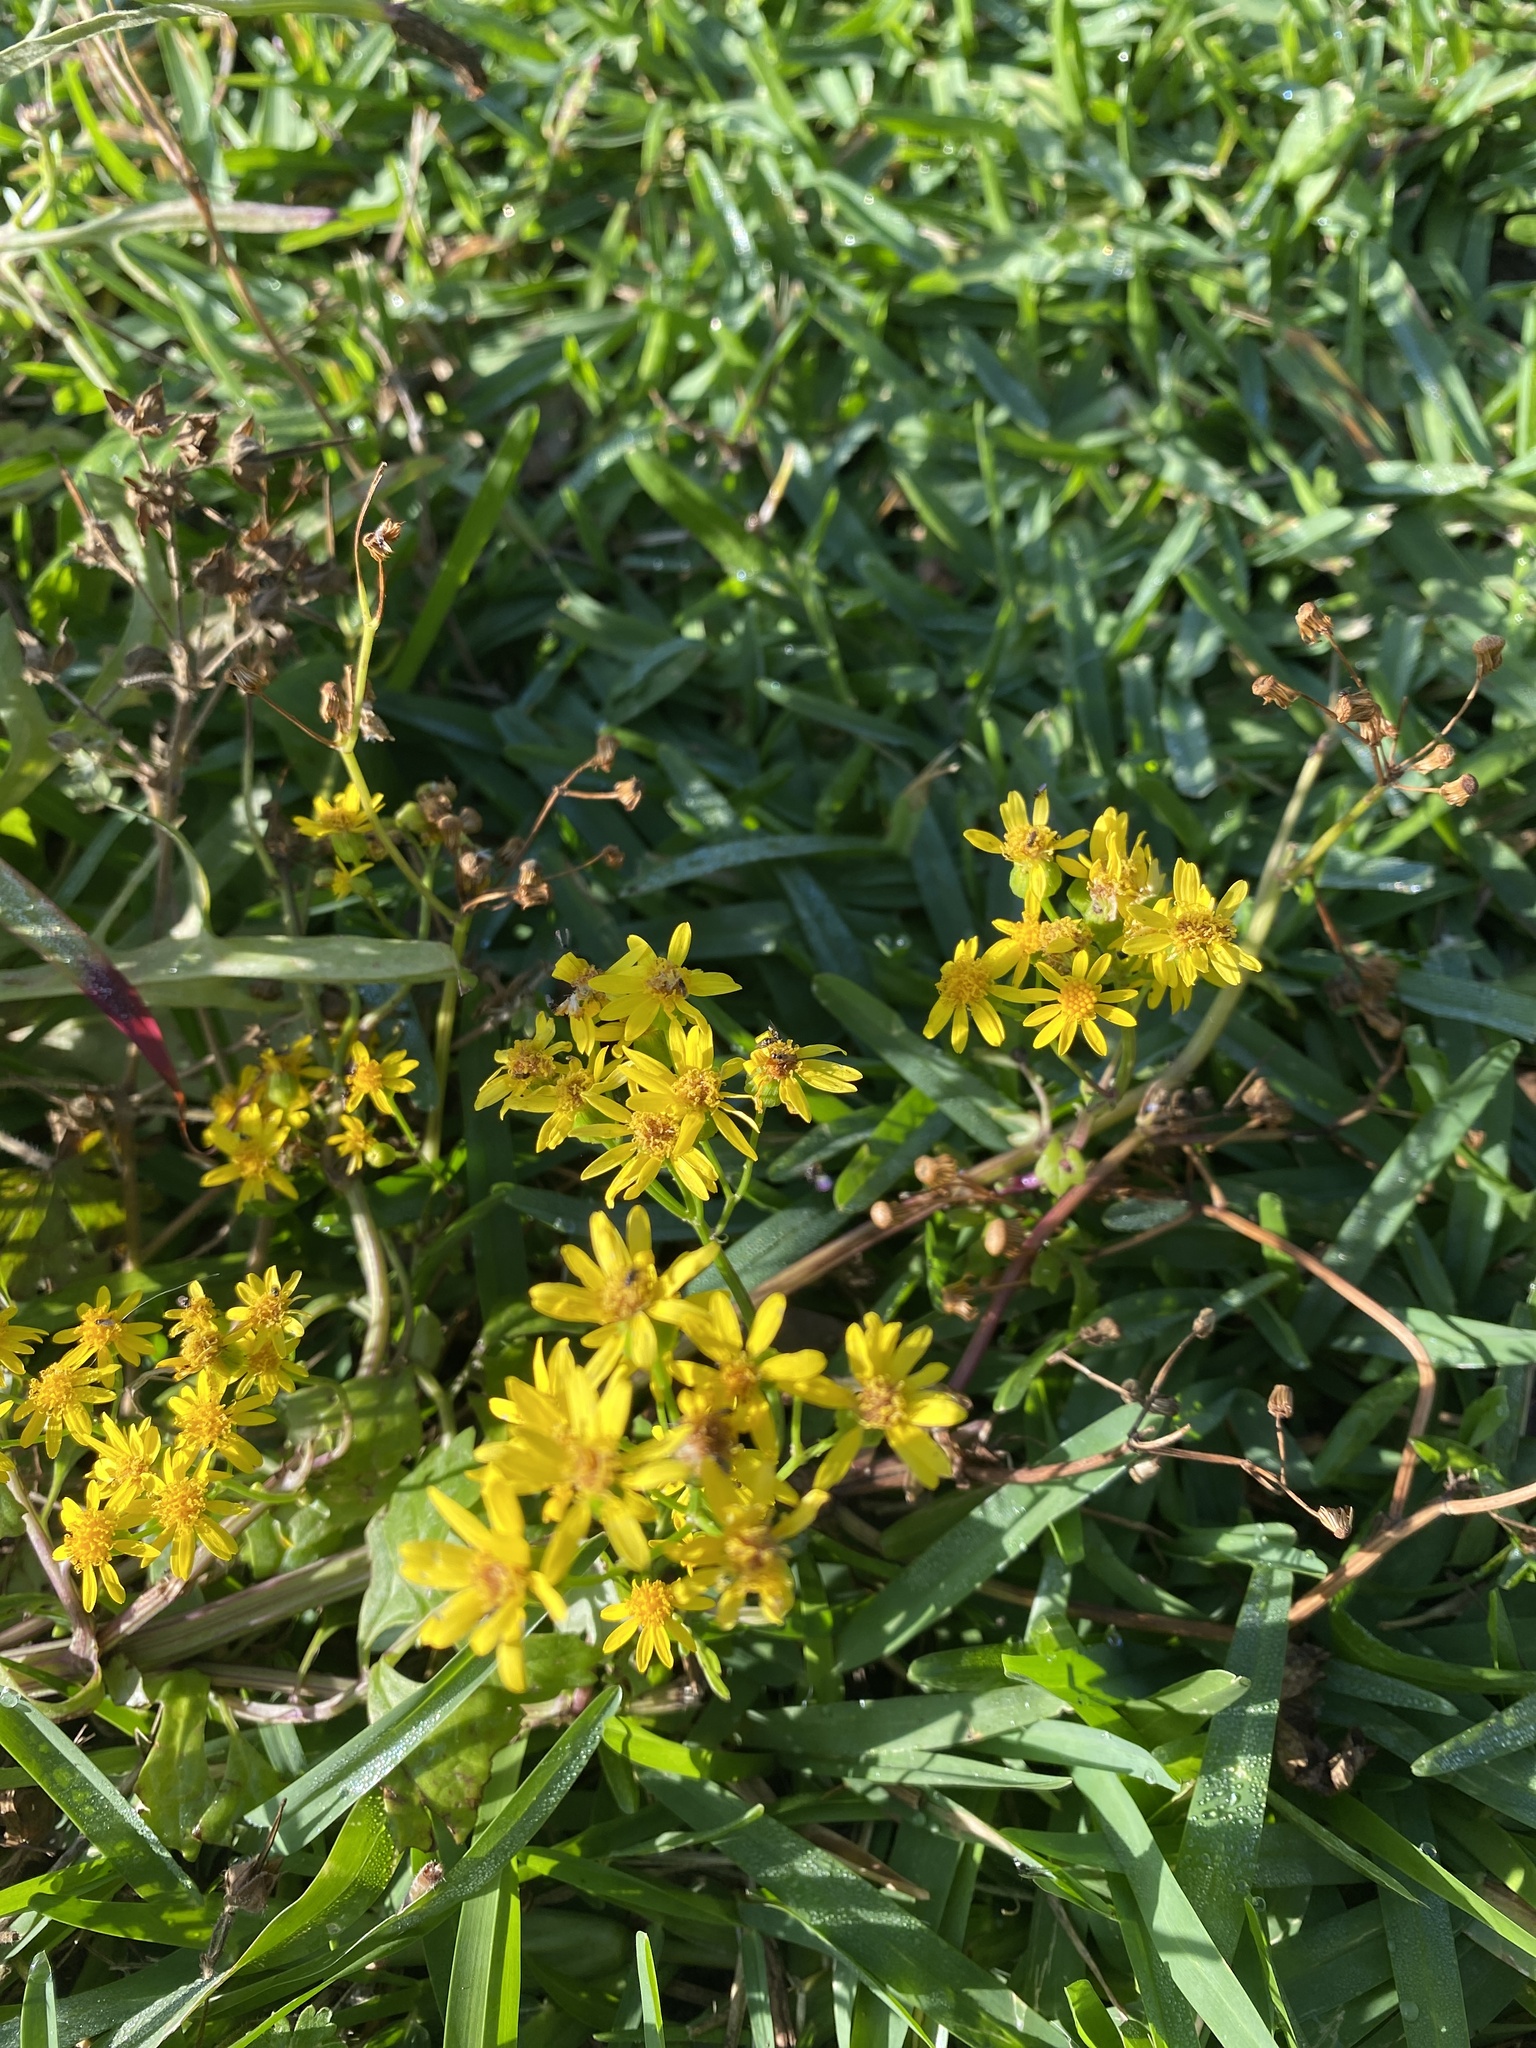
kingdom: Plantae
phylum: Tracheophyta
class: Magnoliopsida
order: Asterales
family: Asteraceae
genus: Packera
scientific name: Packera glabella
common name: Butterweed
